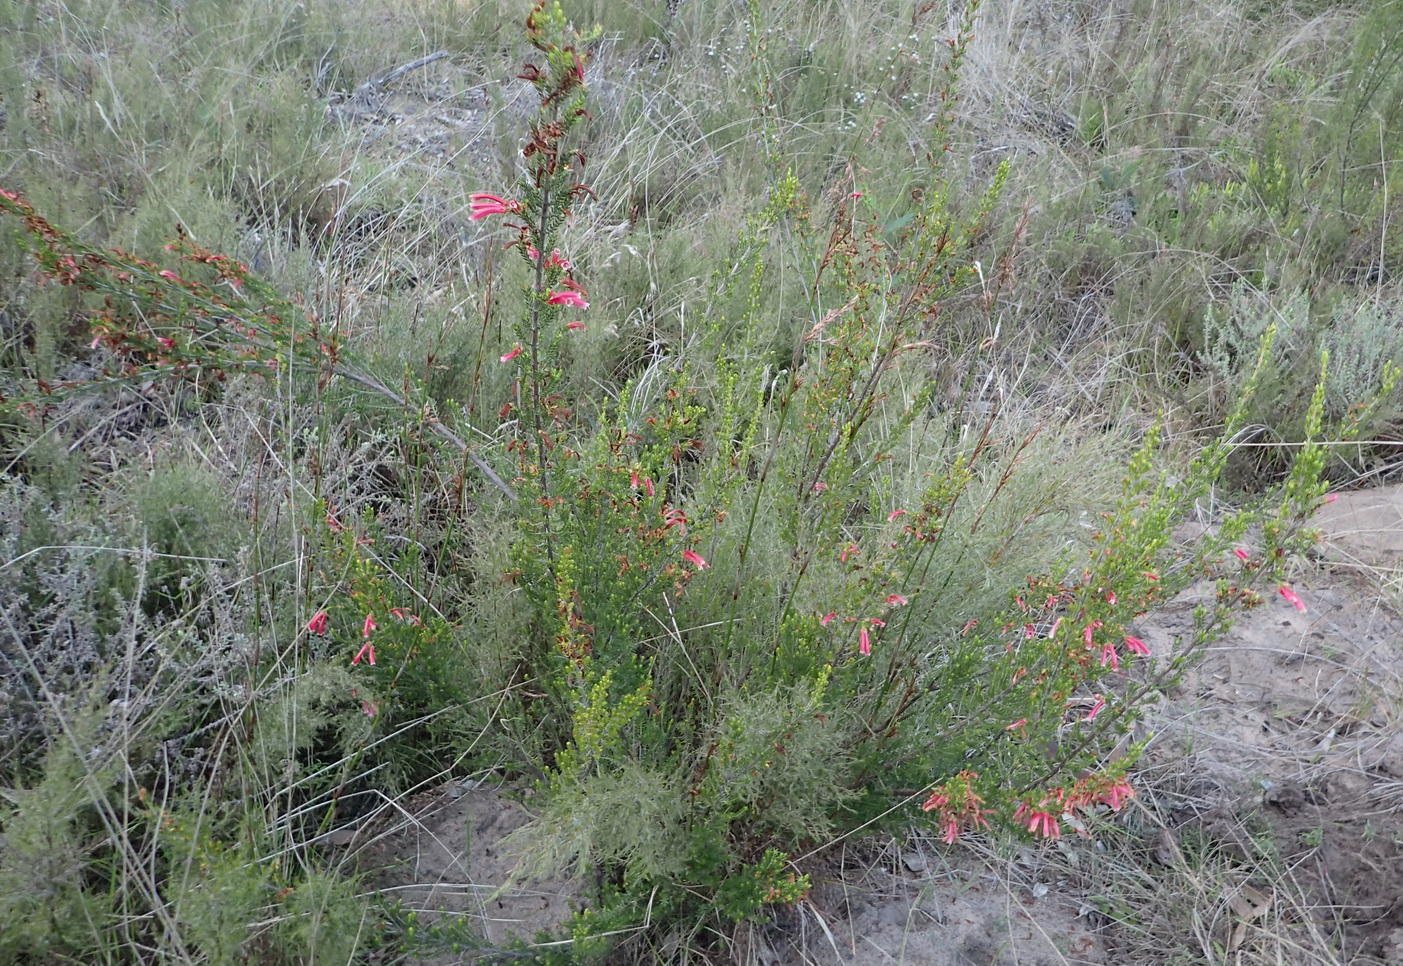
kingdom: Plantae
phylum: Tracheophyta
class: Magnoliopsida
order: Ericales
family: Ericaceae
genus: Erica
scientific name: Erica discolor
